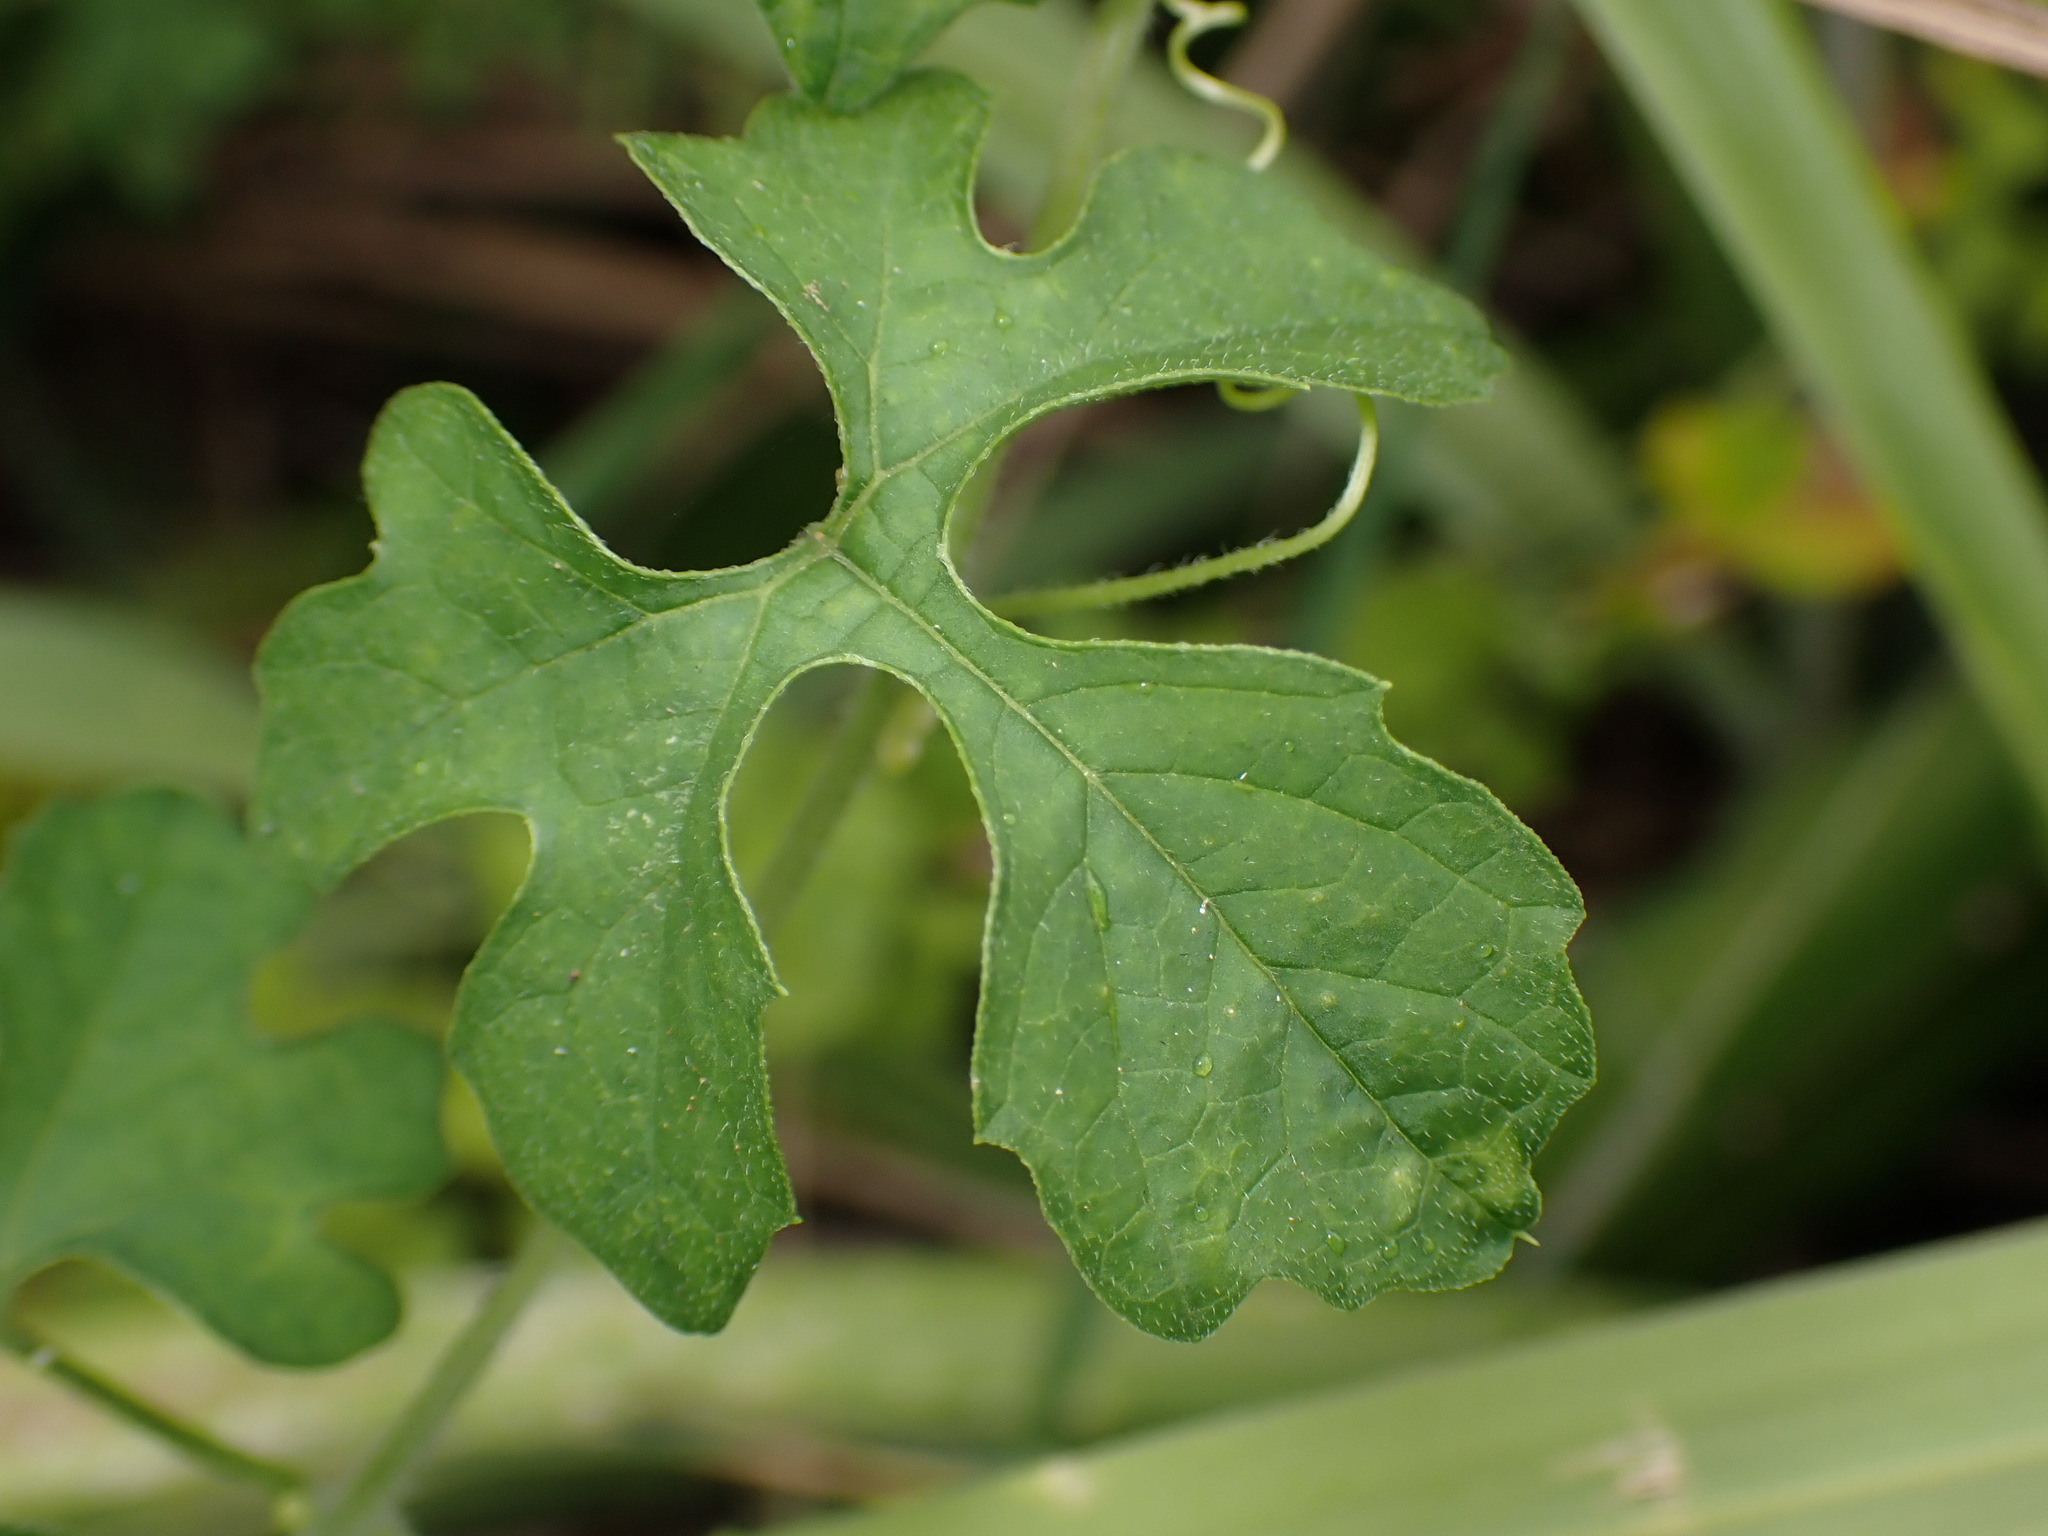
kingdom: Plantae
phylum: Tracheophyta
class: Magnoliopsida
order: Cucurbitales
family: Cucurbitaceae
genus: Momordica
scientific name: Momordica charantia
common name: Balsampear
